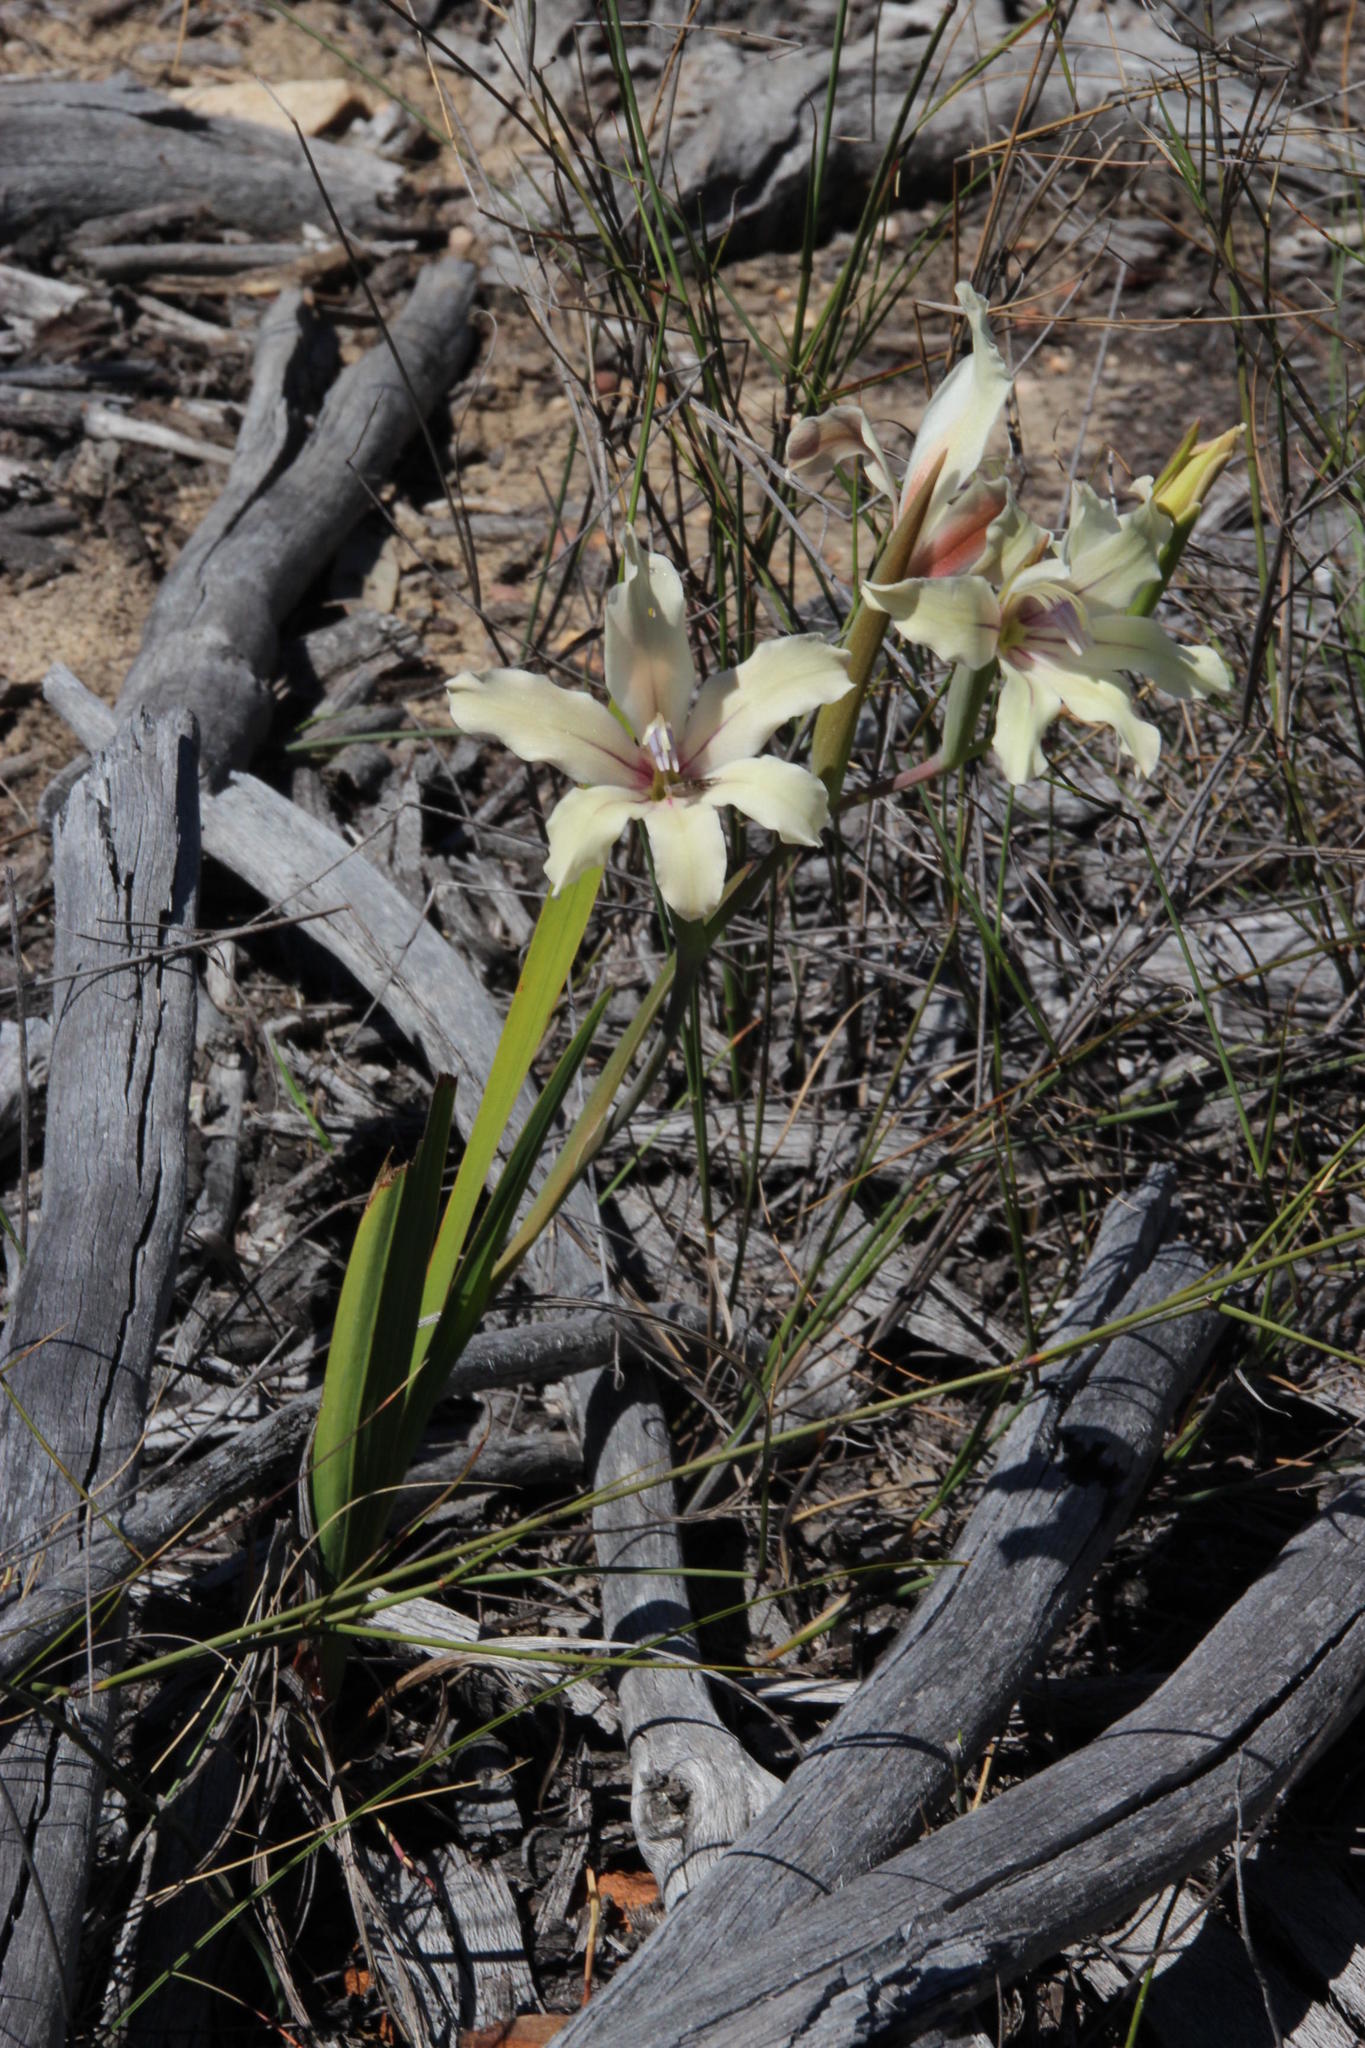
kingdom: Plantae
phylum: Tracheophyta
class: Liliopsida
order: Asparagales
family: Iridaceae
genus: Gladiolus
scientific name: Gladiolus grandiflorus
